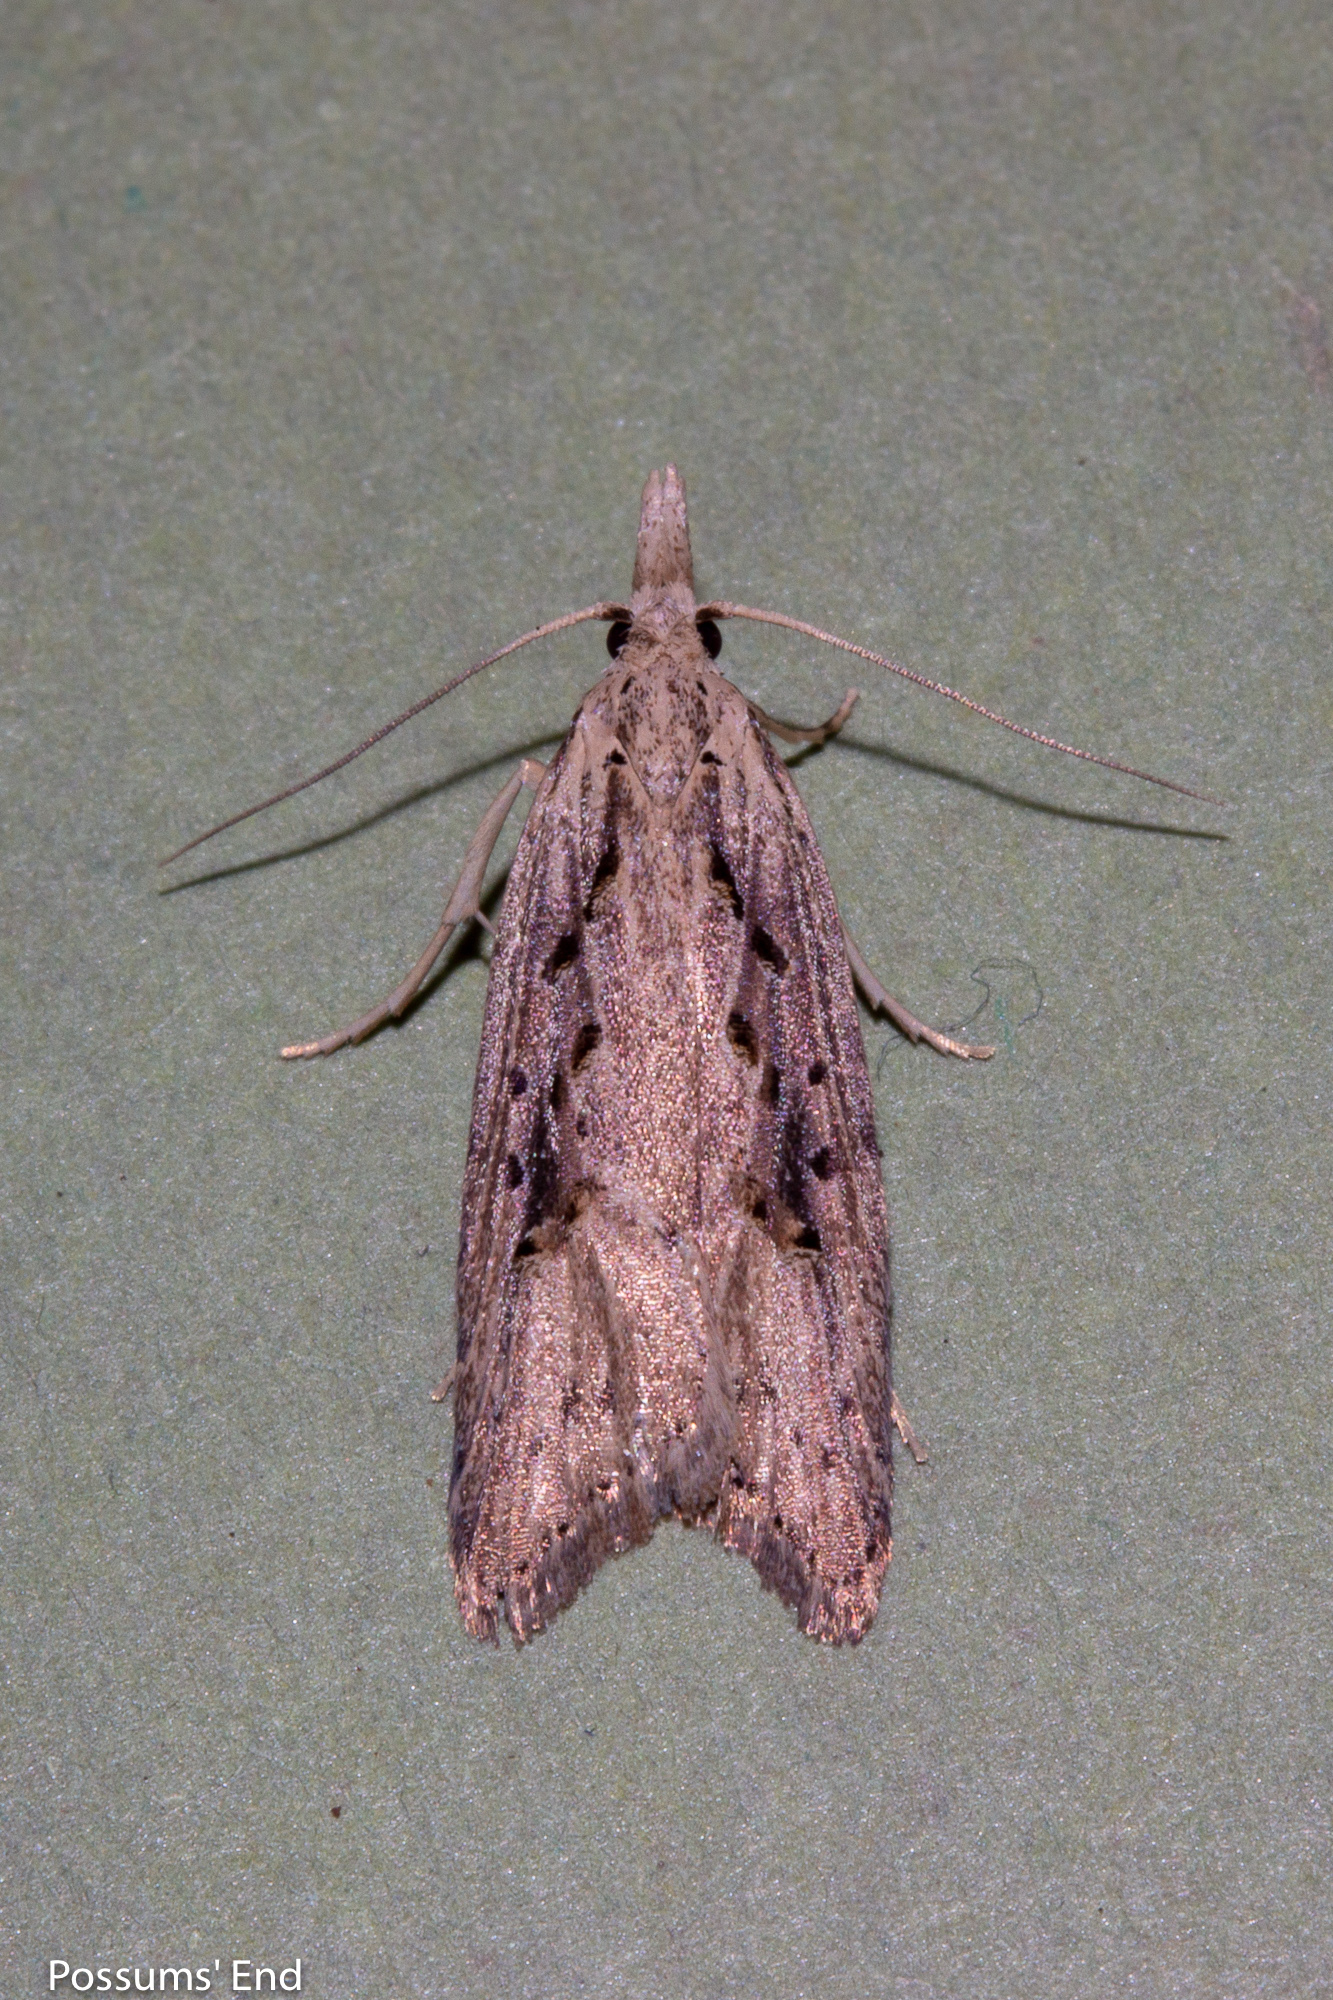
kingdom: Animalia
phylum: Arthropoda
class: Insecta
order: Lepidoptera
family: Carposinidae
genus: Carposina
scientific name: Carposina Heterocrossa exochana
